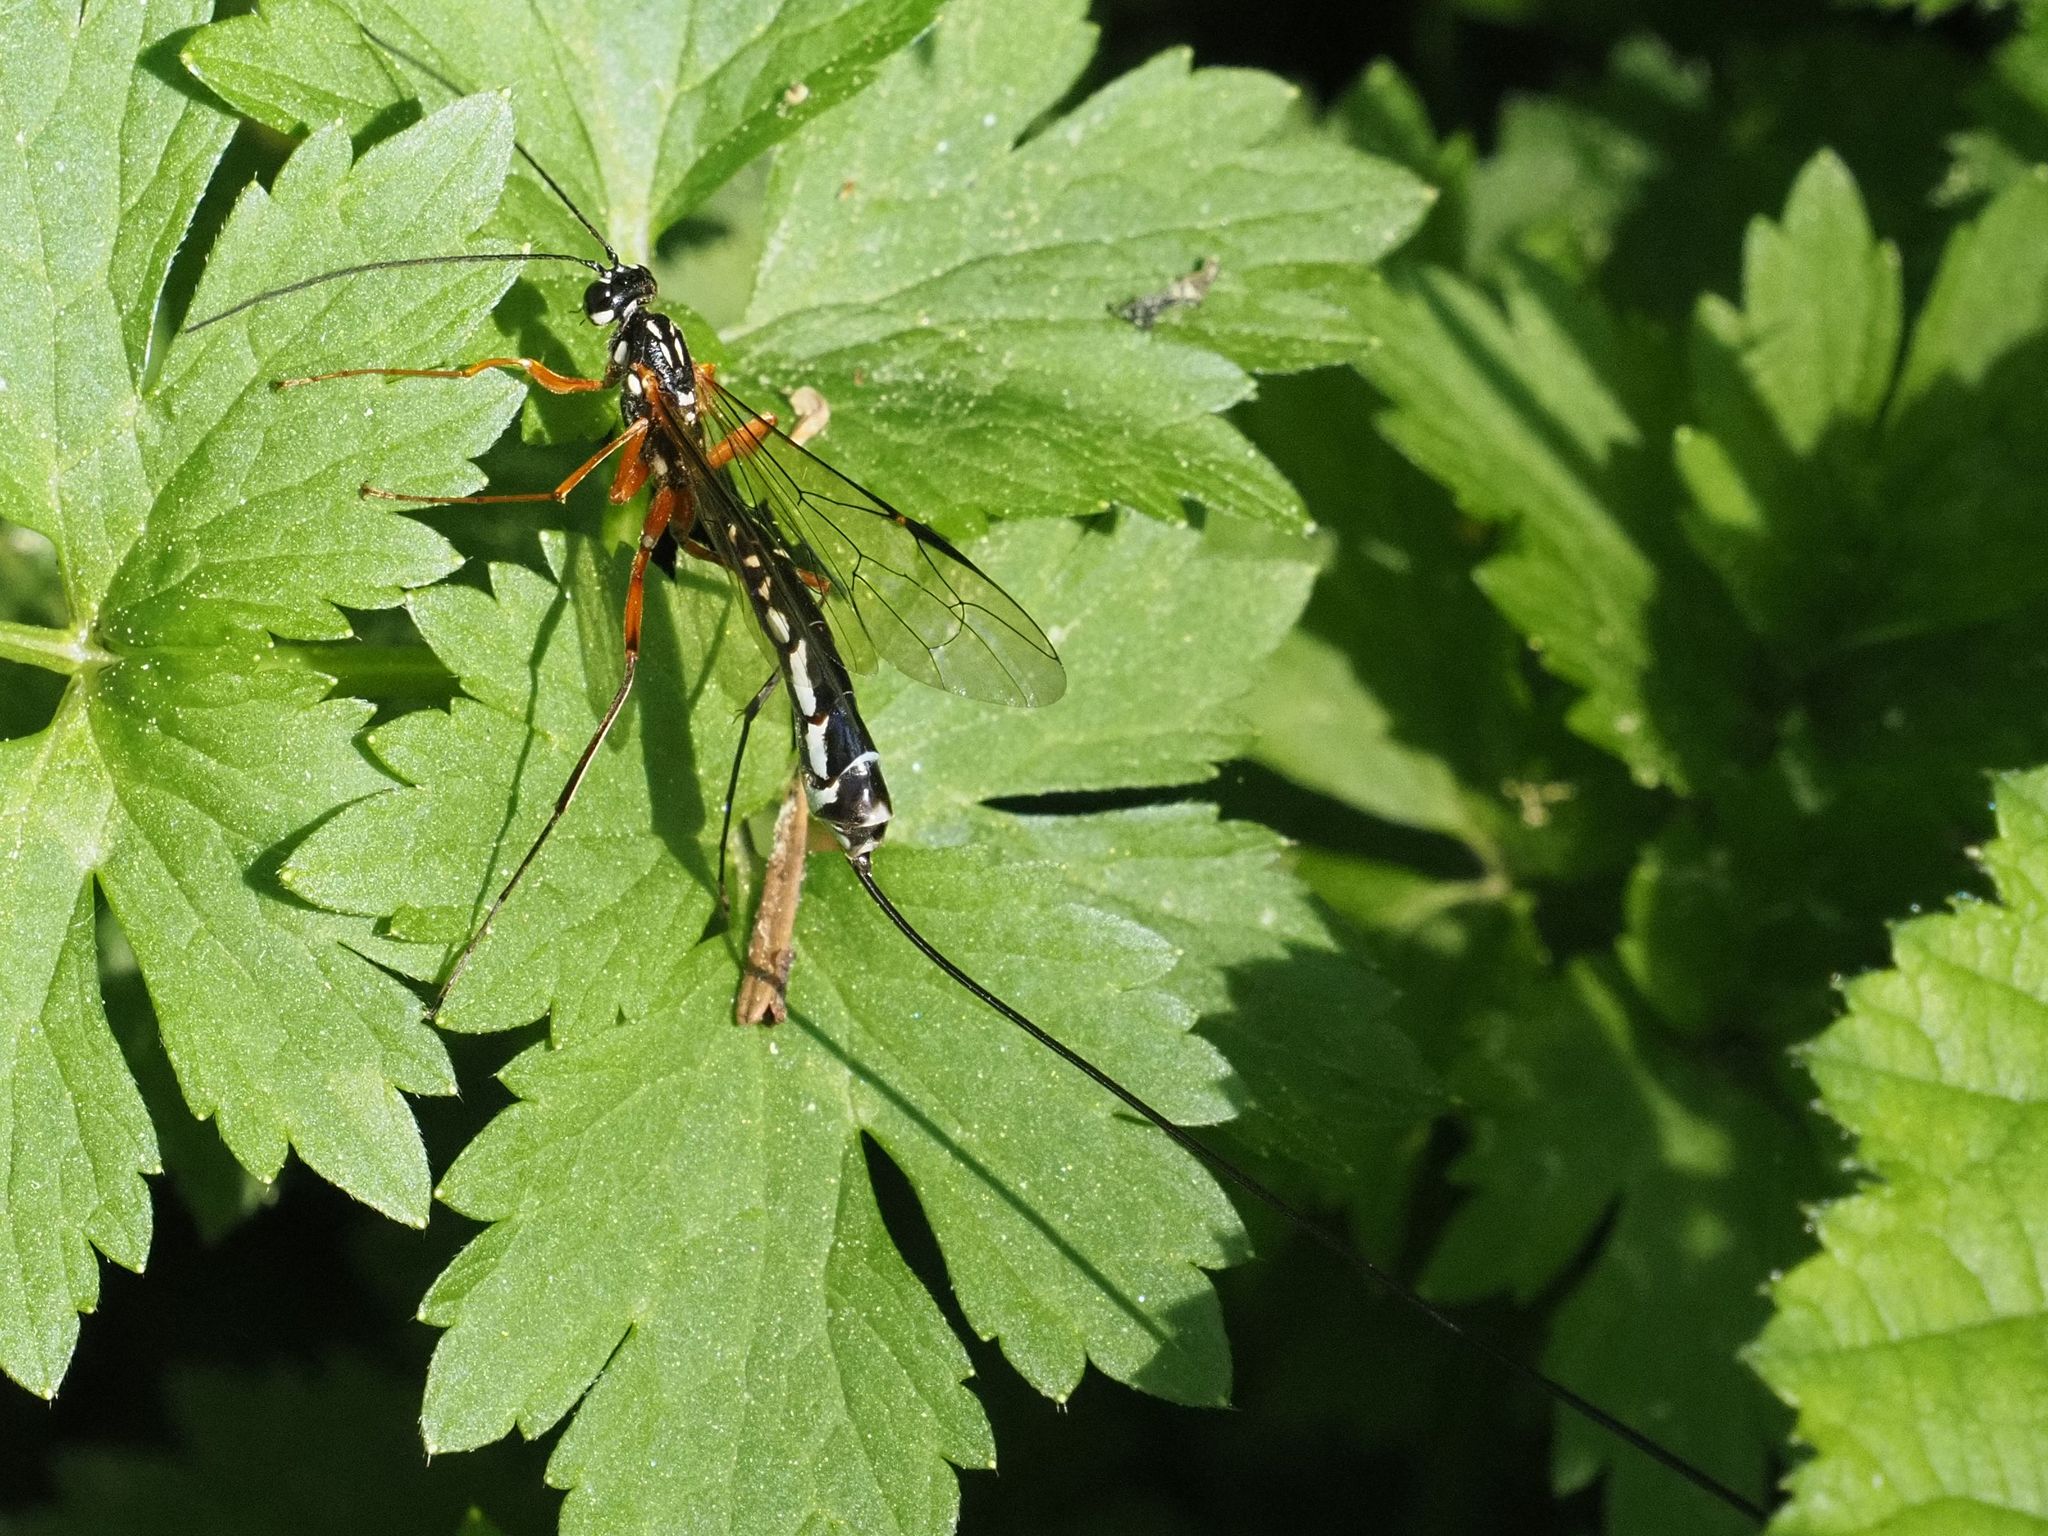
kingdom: Animalia
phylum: Arthropoda
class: Insecta
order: Hymenoptera
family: Ichneumonidae
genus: Megarhyssa
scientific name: Megarhyssa rixator
